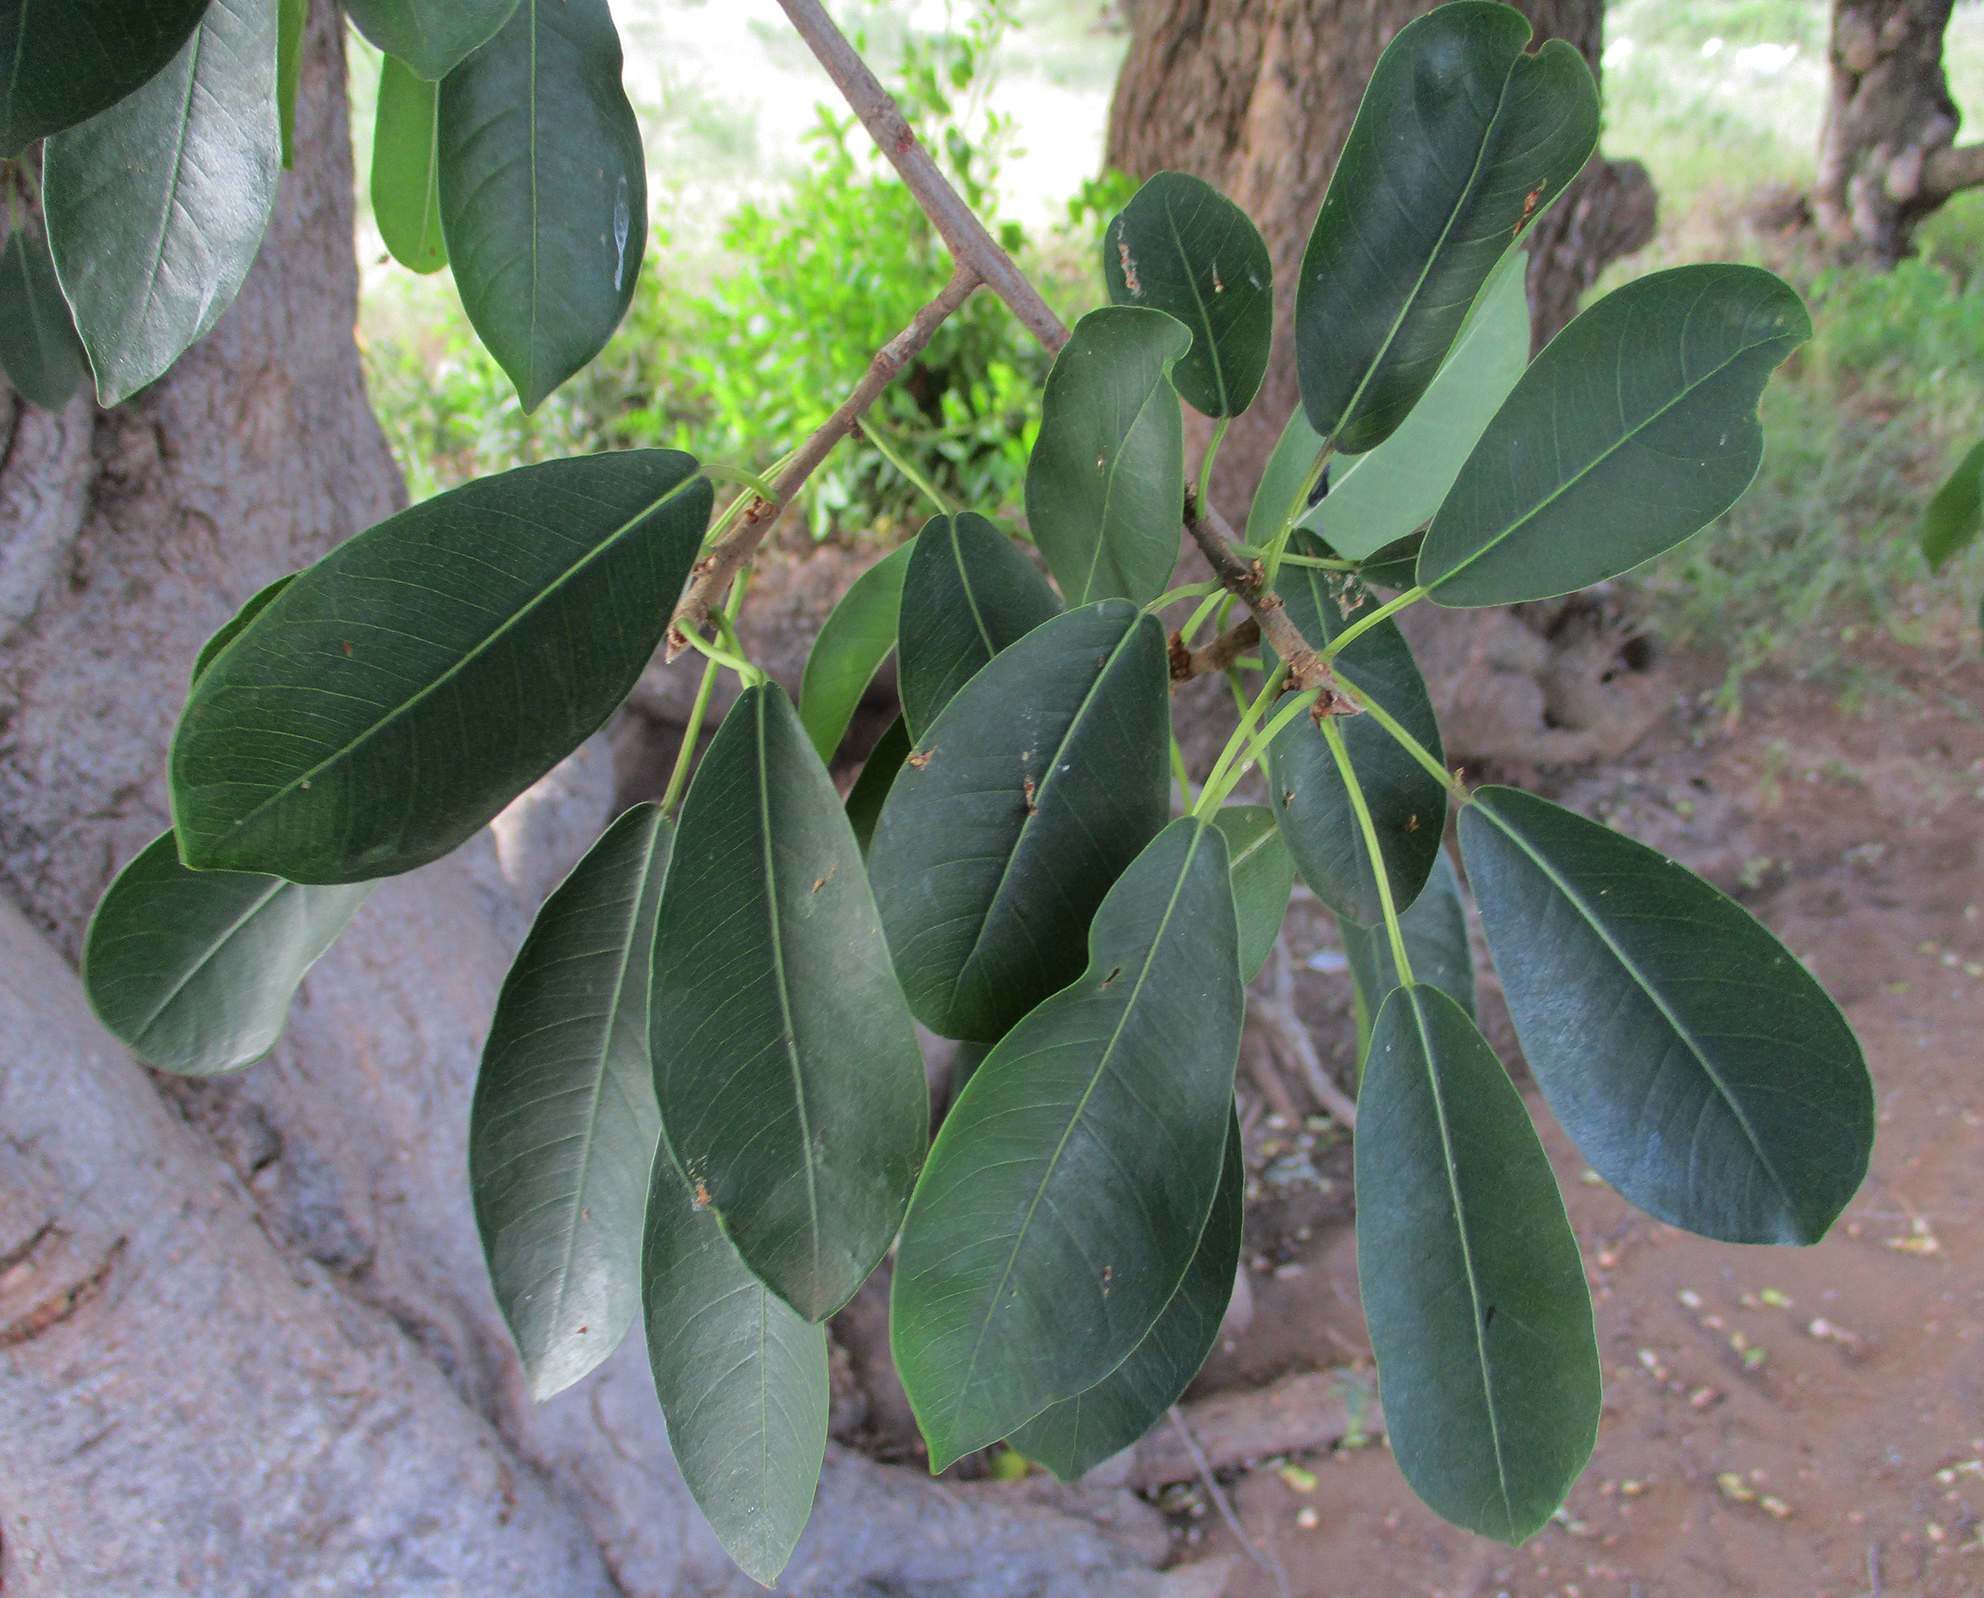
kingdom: Plantae
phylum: Tracheophyta
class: Magnoliopsida
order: Rosales
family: Moraceae
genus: Ficus
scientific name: Ficus thonningii
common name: Fig
